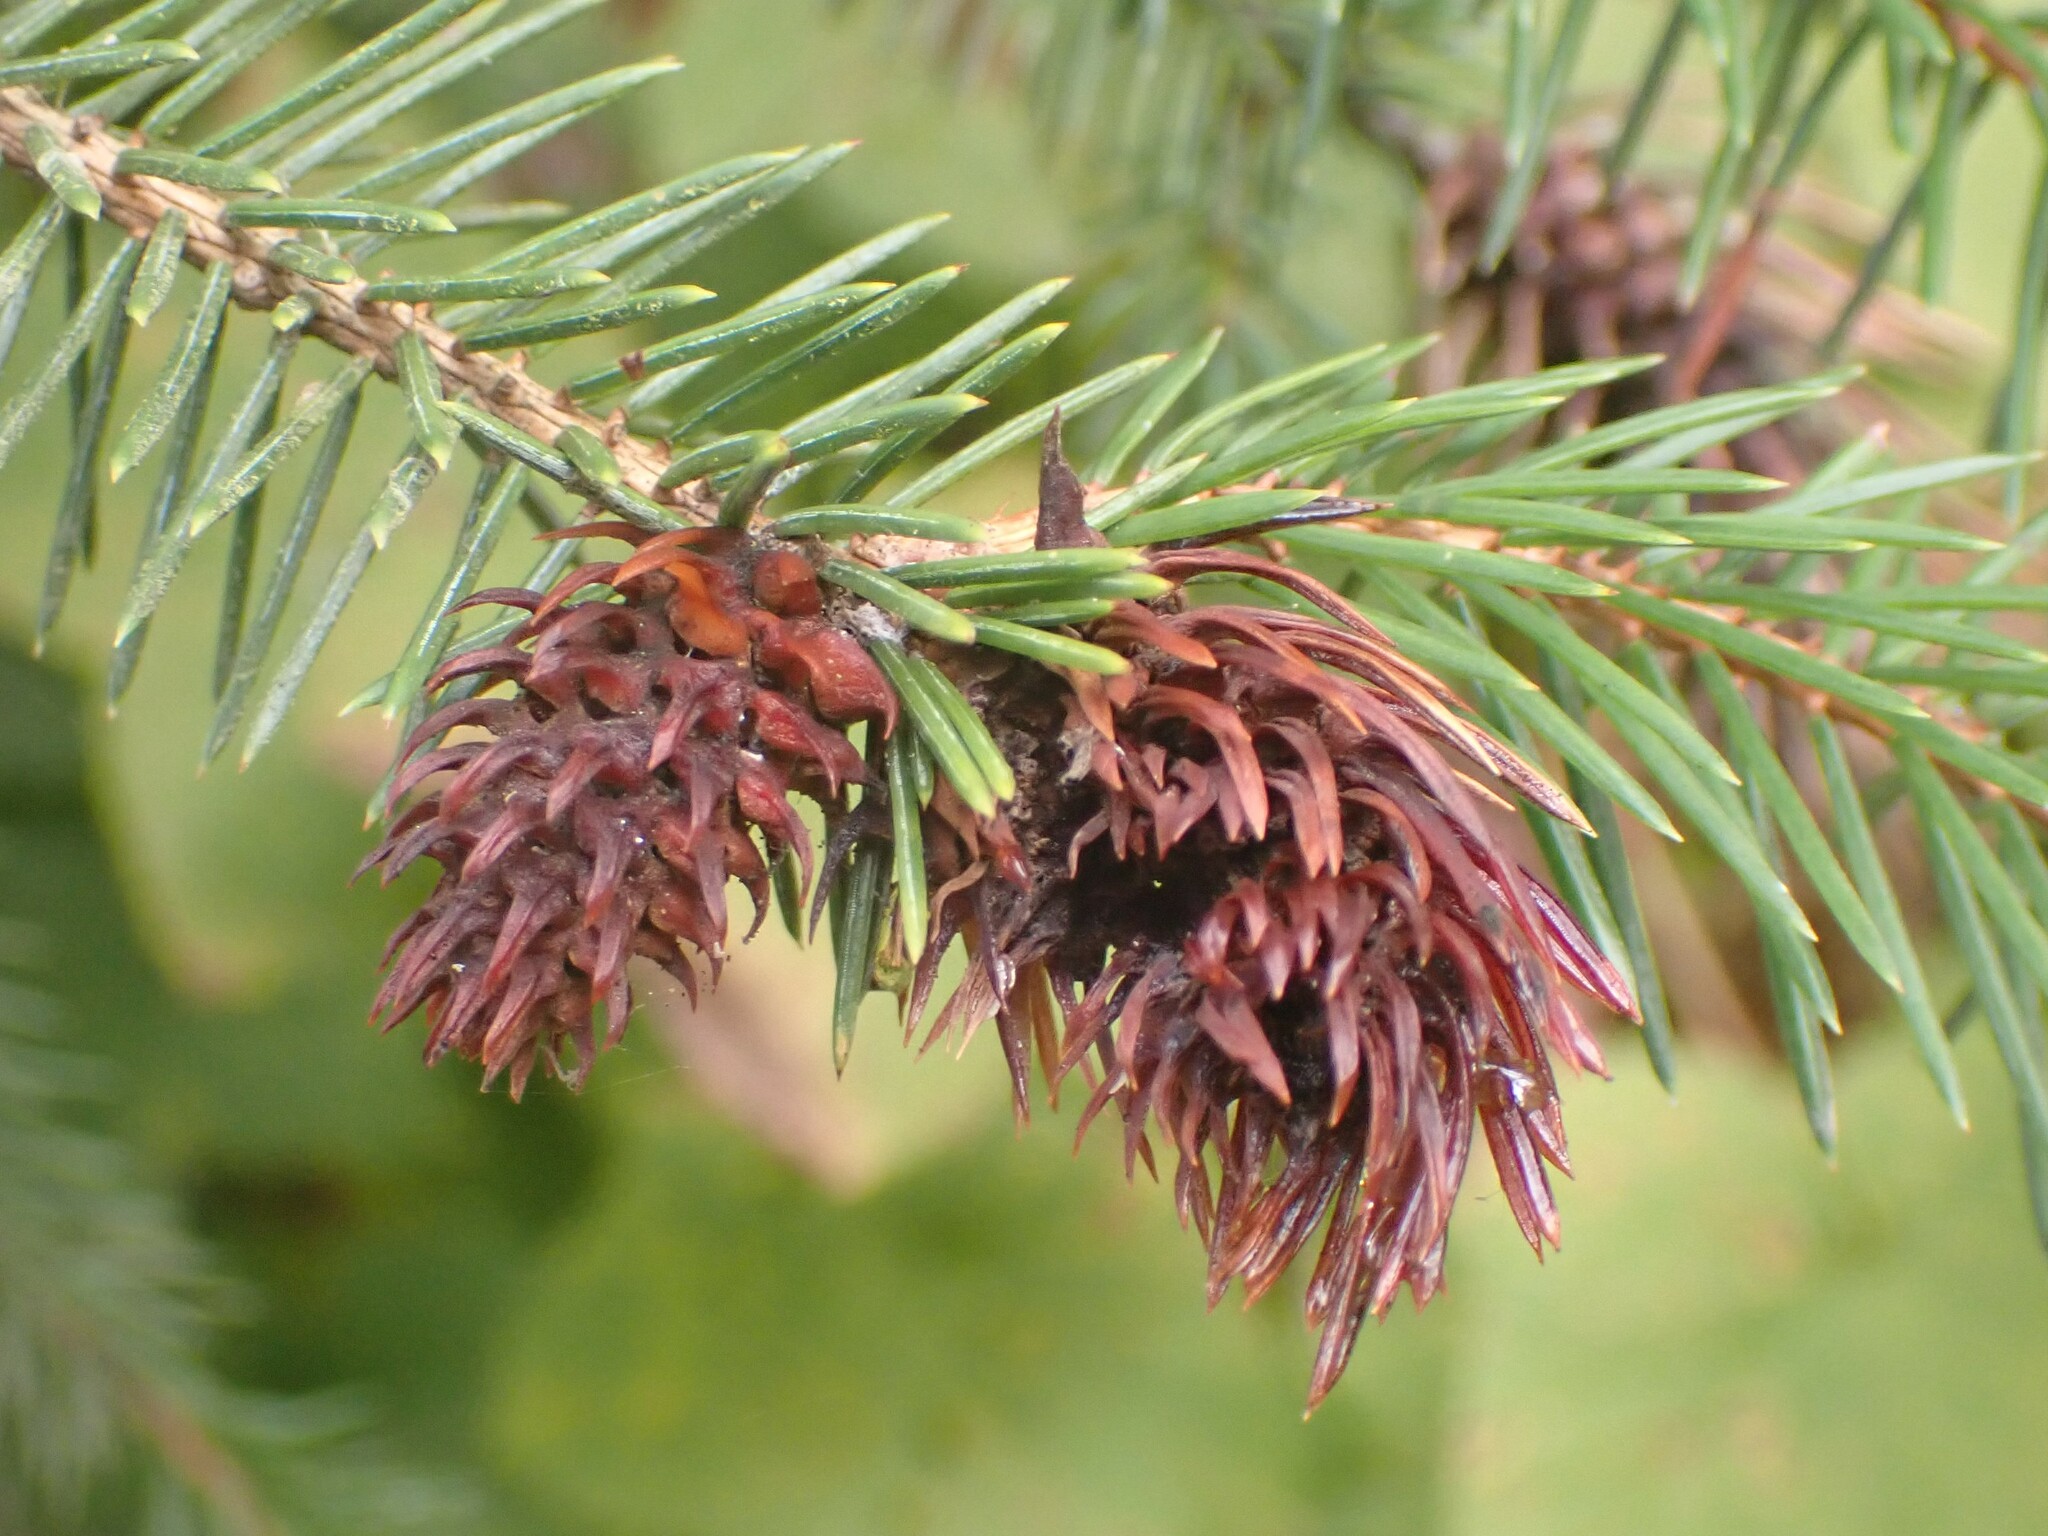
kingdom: Animalia
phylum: Arthropoda
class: Insecta
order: Hemiptera
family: Adelgidae
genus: Adelges
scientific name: Adelges cooleyi
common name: Cooley spruce gall adelgid
